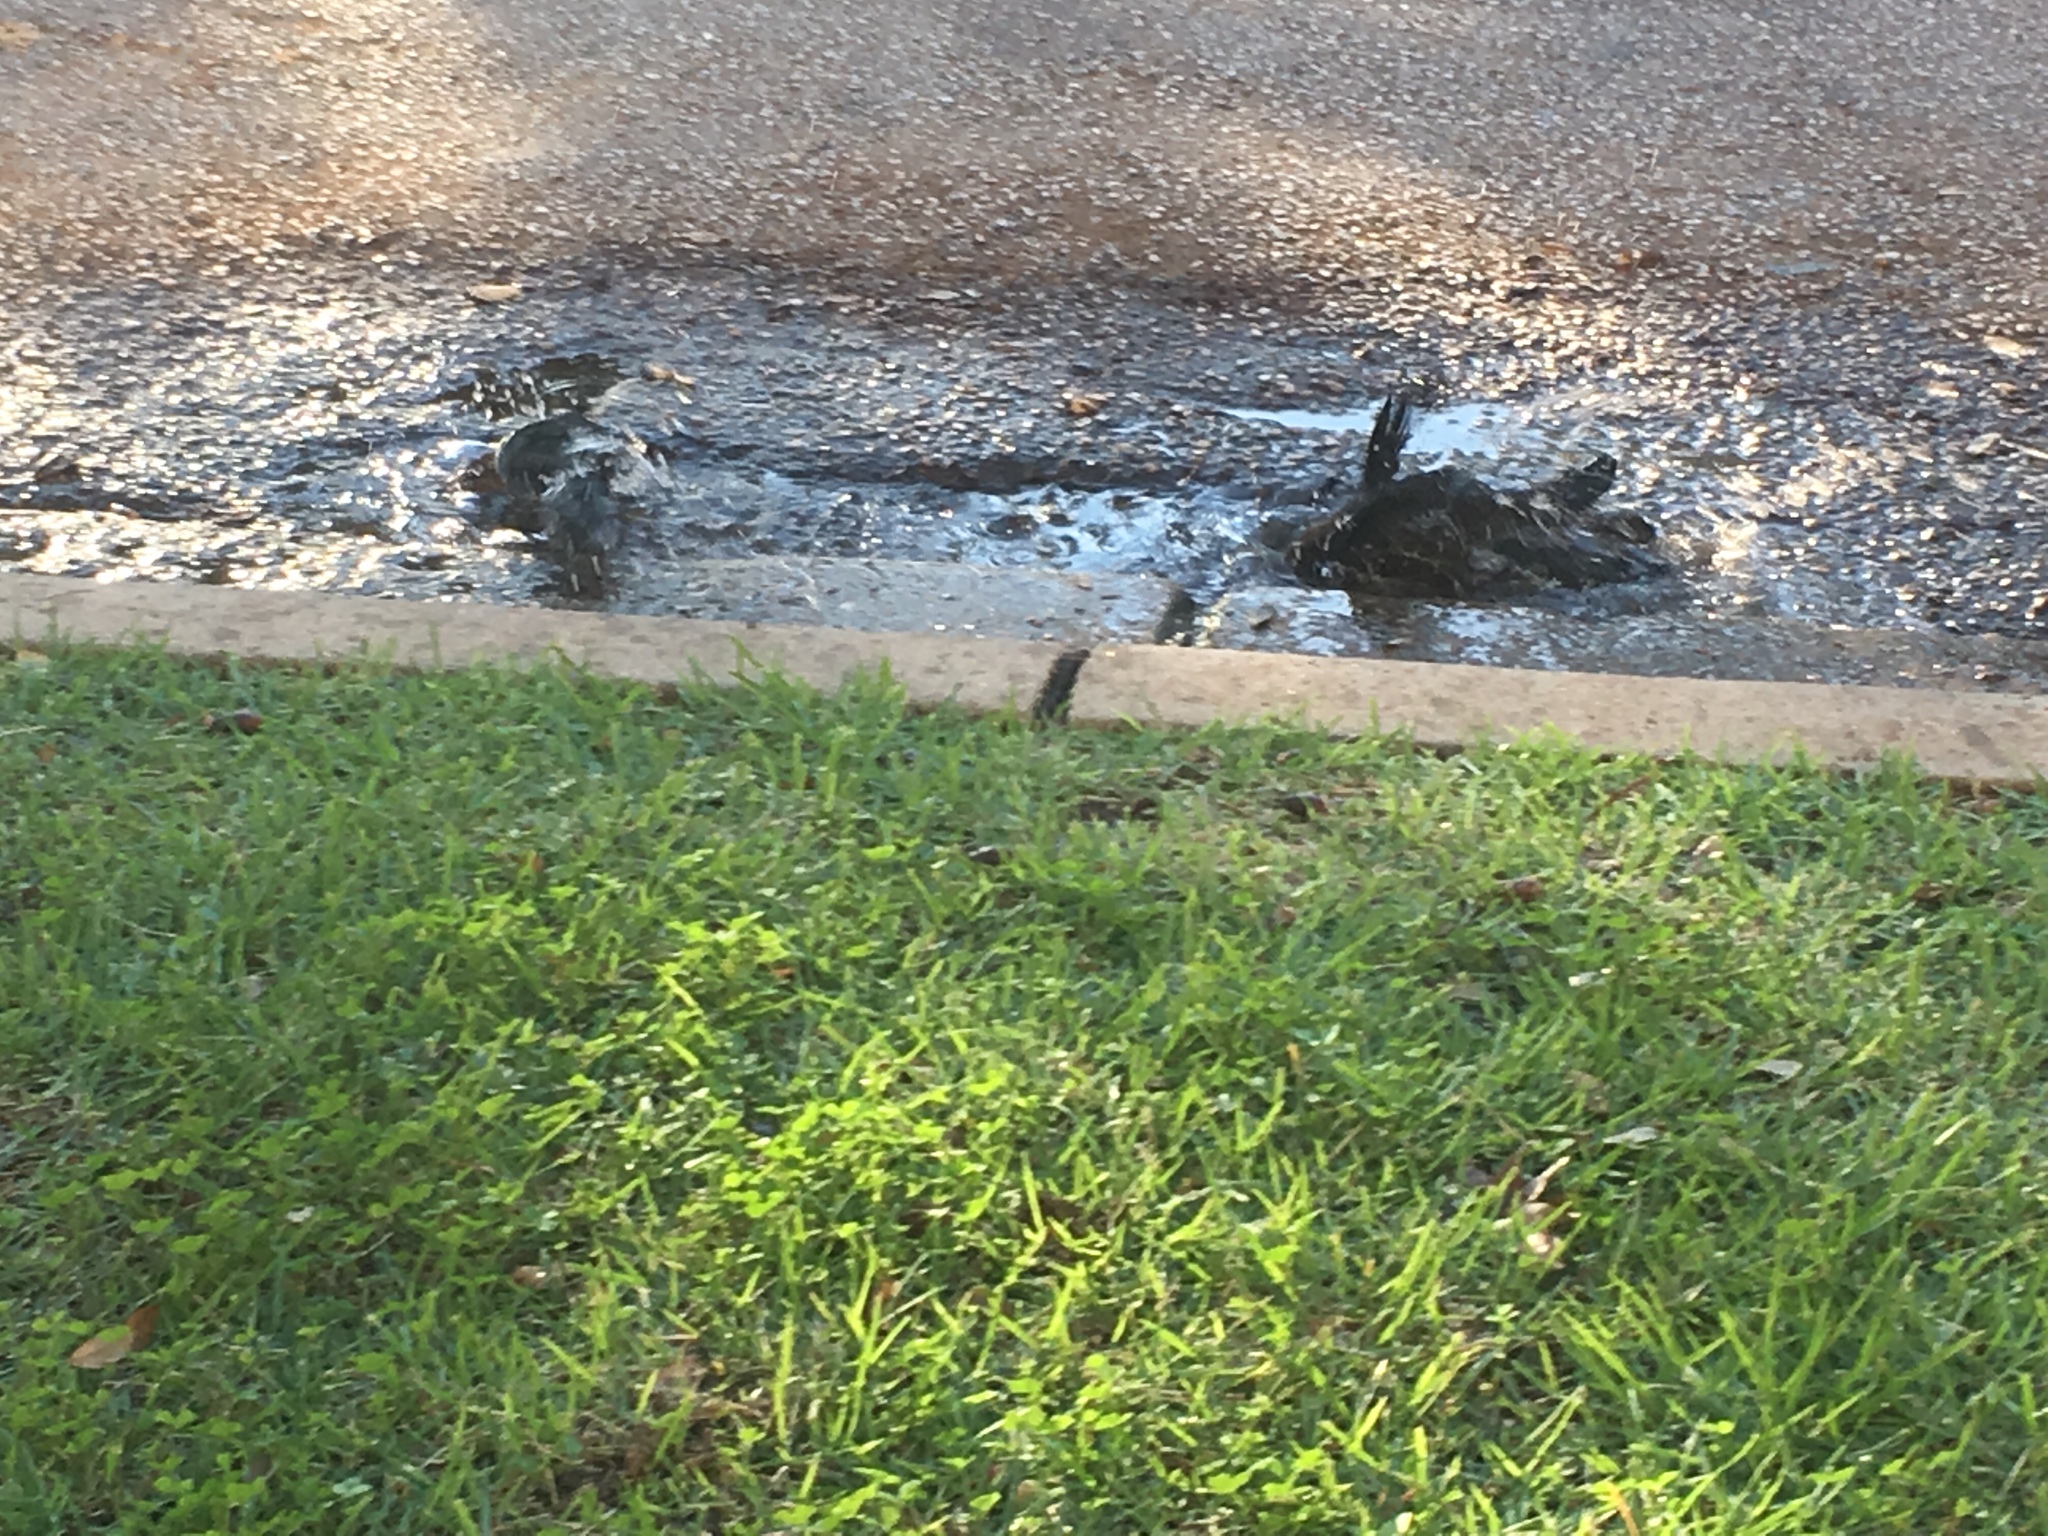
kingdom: Animalia
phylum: Chordata
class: Aves
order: Passeriformes
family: Icteridae
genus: Quiscalus
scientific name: Quiscalus mexicanus
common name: Great-tailed grackle
